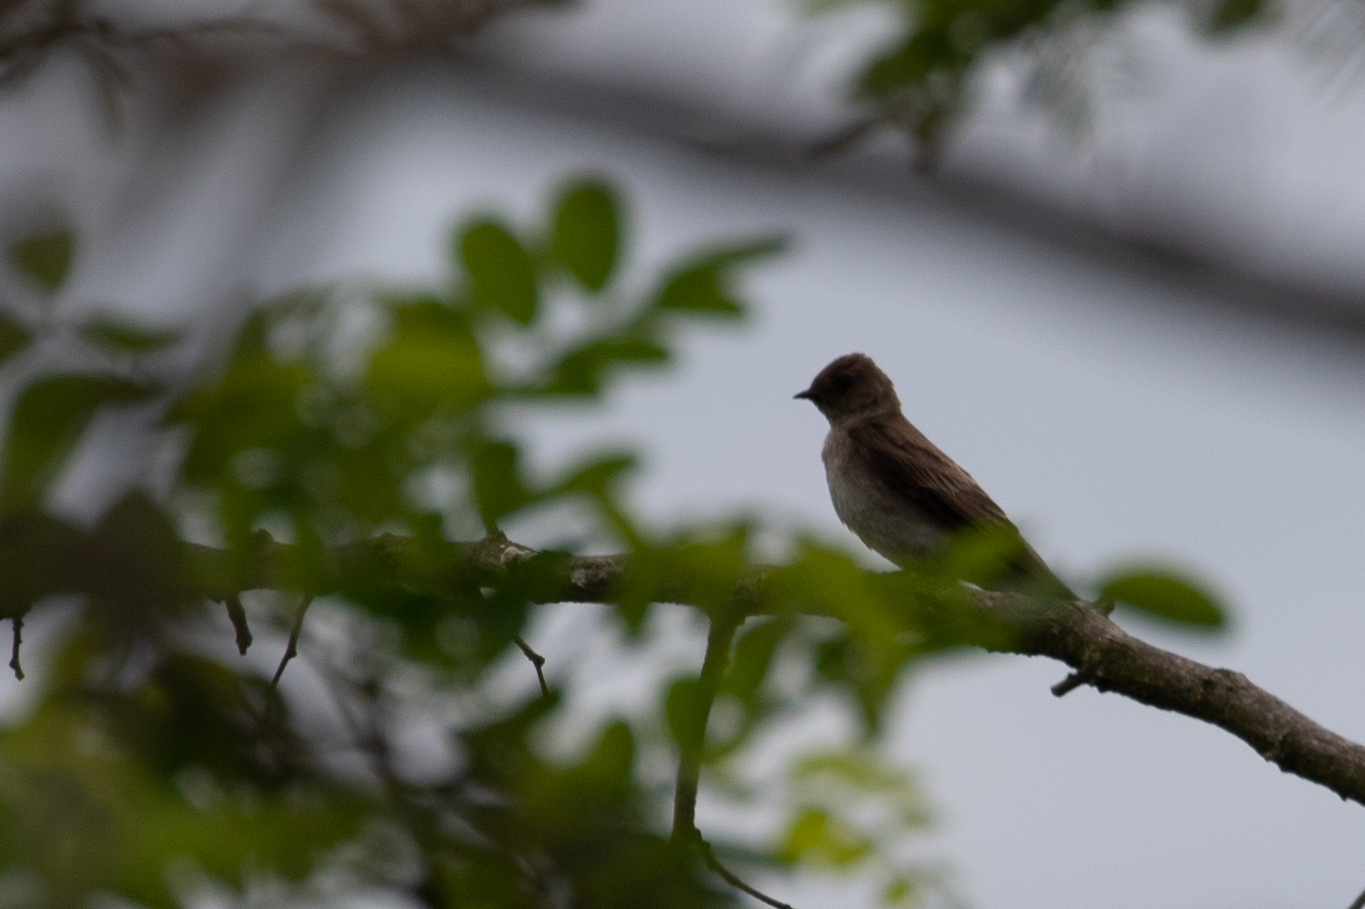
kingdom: Animalia
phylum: Chordata
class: Aves
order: Passeriformes
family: Hirundinidae
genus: Stelgidopteryx
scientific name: Stelgidopteryx serripennis
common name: Northern rough-winged swallow
